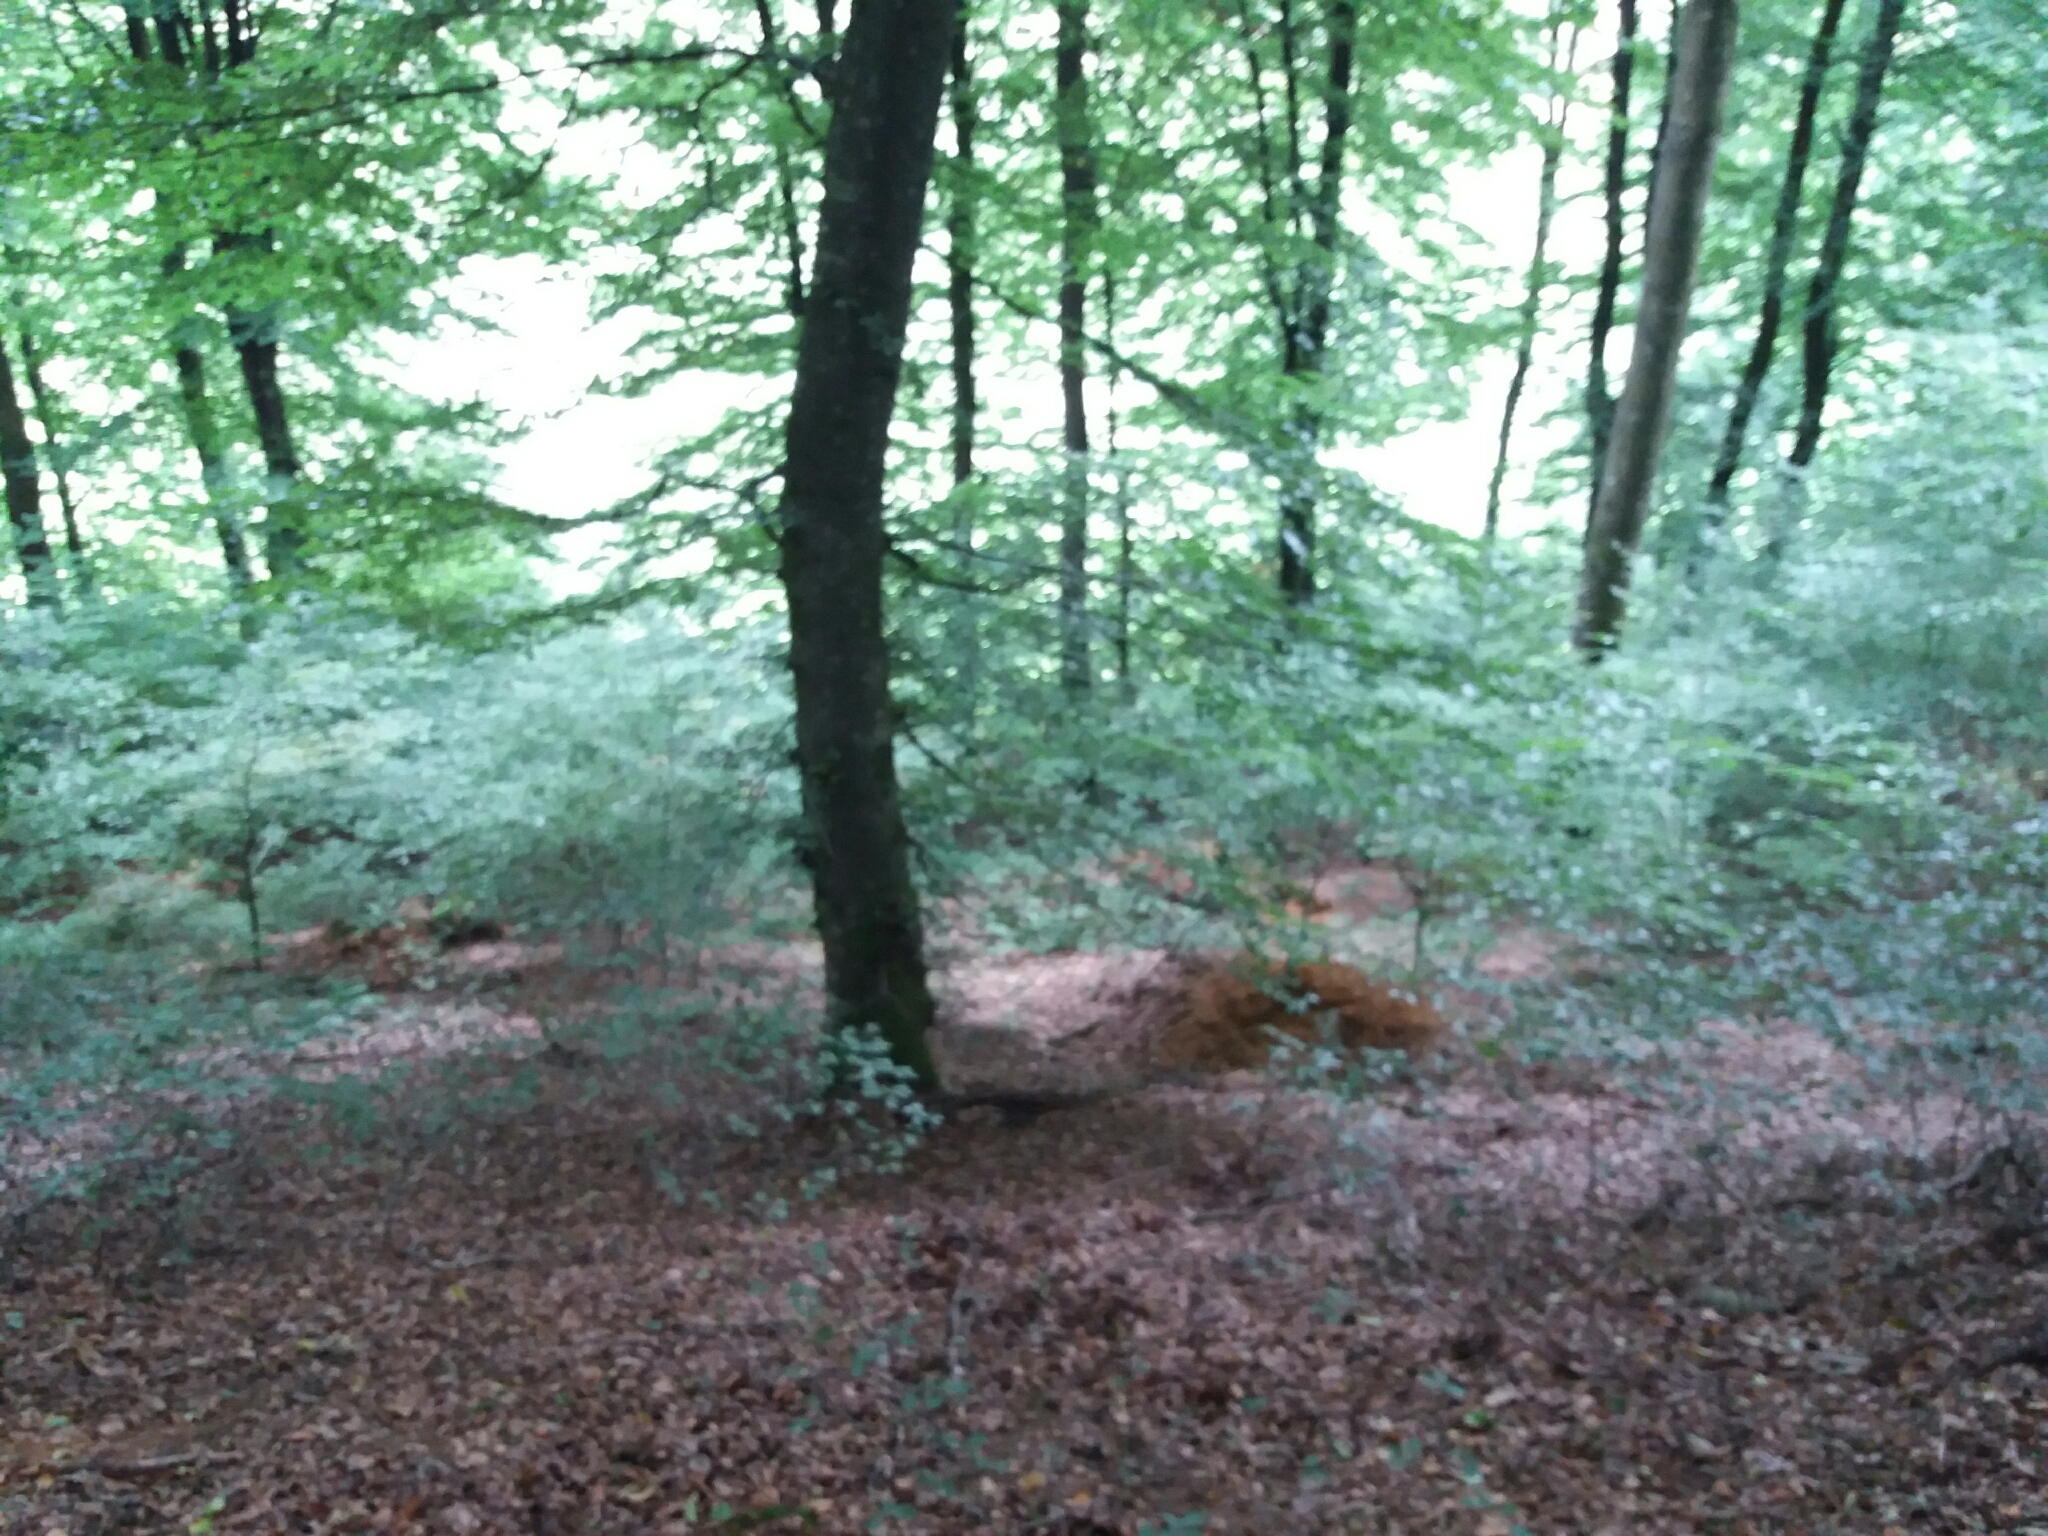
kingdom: Animalia
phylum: Chordata
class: Mammalia
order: Carnivora
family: Mustelidae
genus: Meles
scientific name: Meles meles
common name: Eurasian badger
